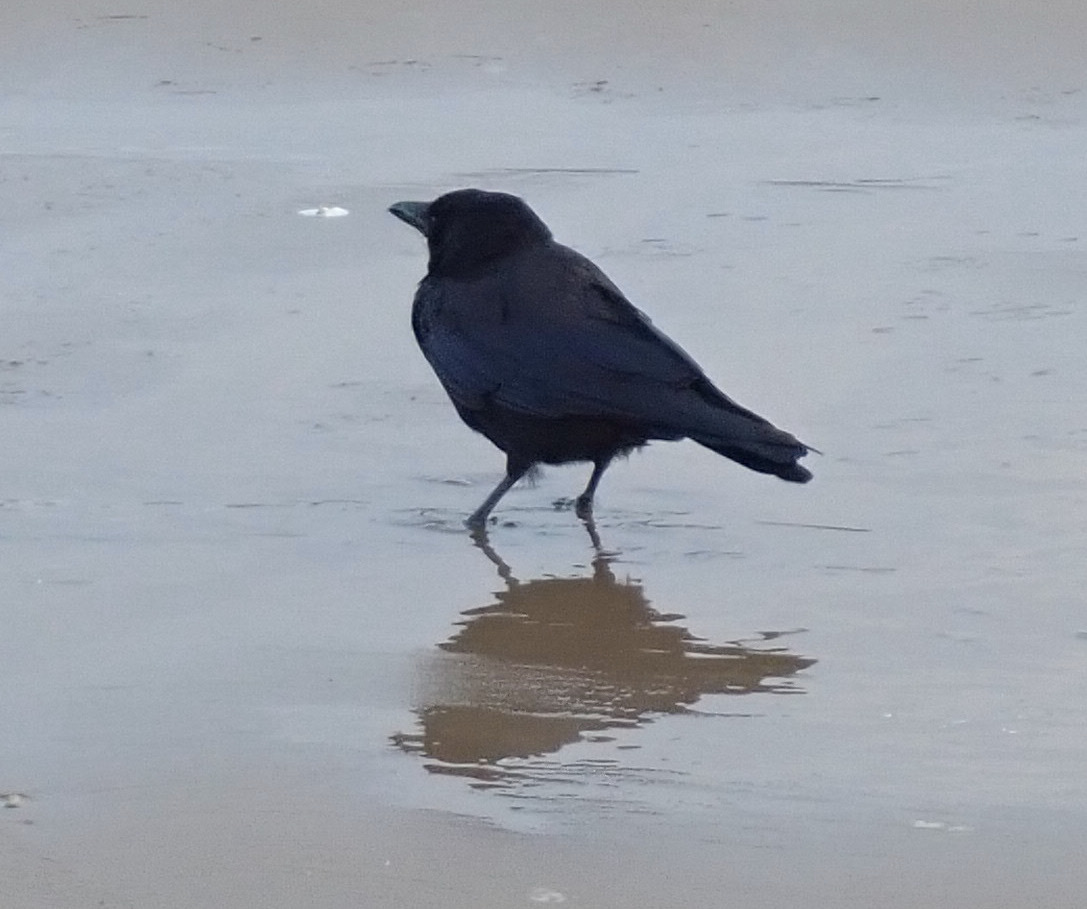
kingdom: Animalia
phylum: Chordata
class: Aves
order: Passeriformes
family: Corvidae
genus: Corvus
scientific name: Corvus corone
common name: Carrion crow
